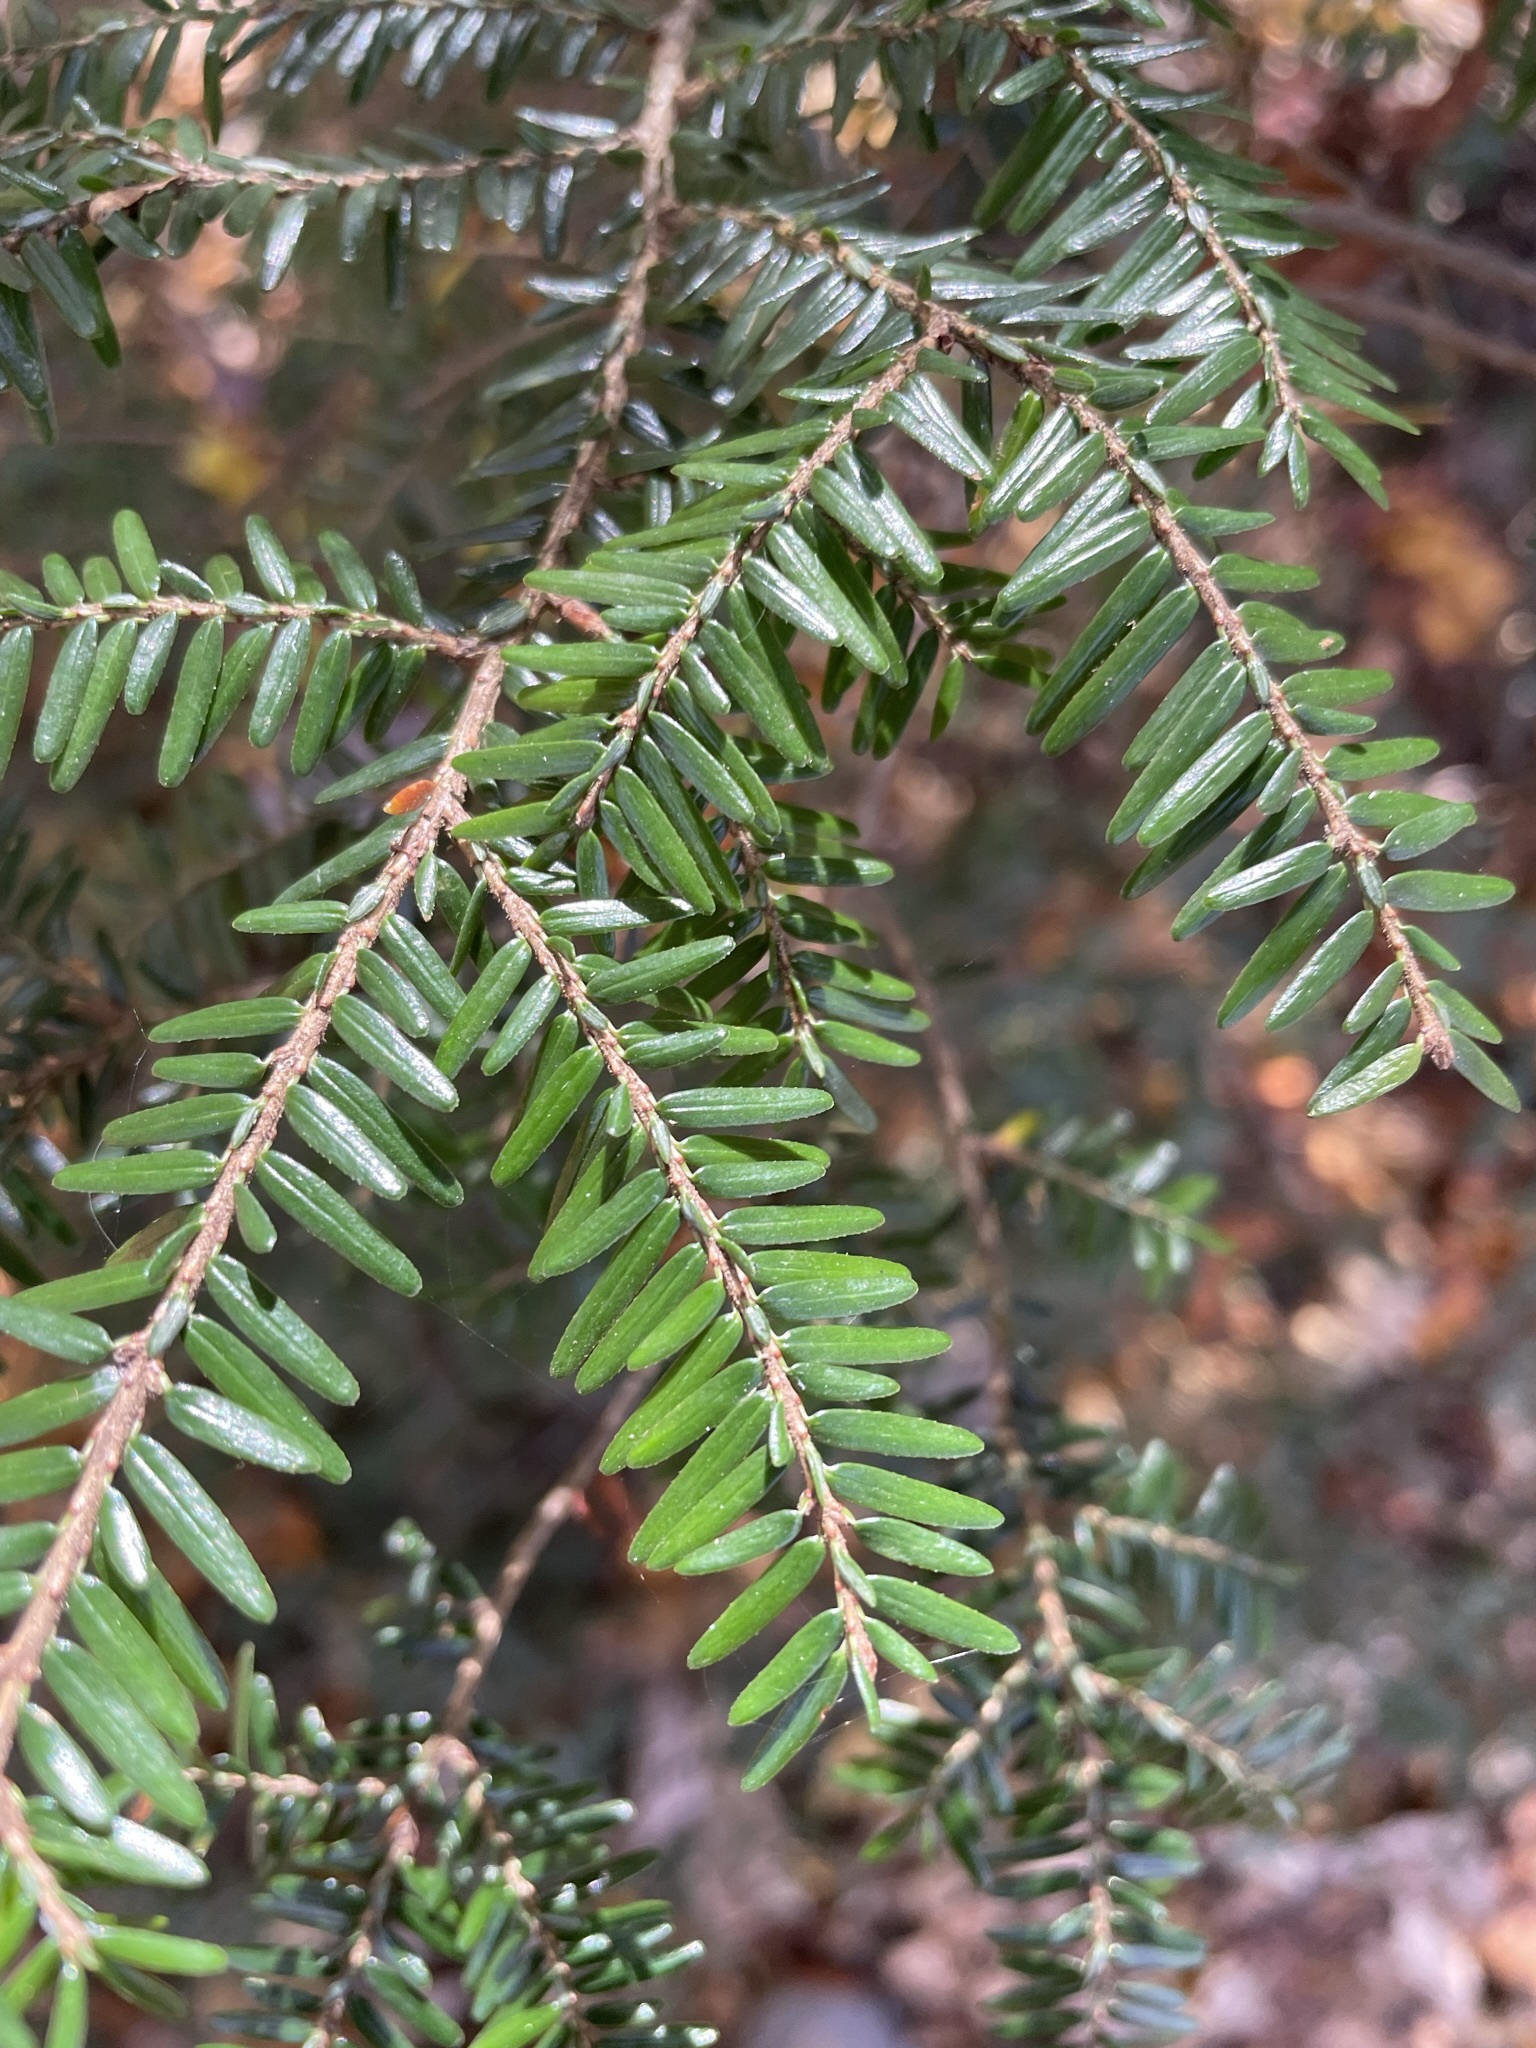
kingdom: Plantae
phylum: Tracheophyta
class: Pinopsida
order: Pinales
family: Pinaceae
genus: Tsuga
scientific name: Tsuga canadensis
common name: Eastern hemlock
